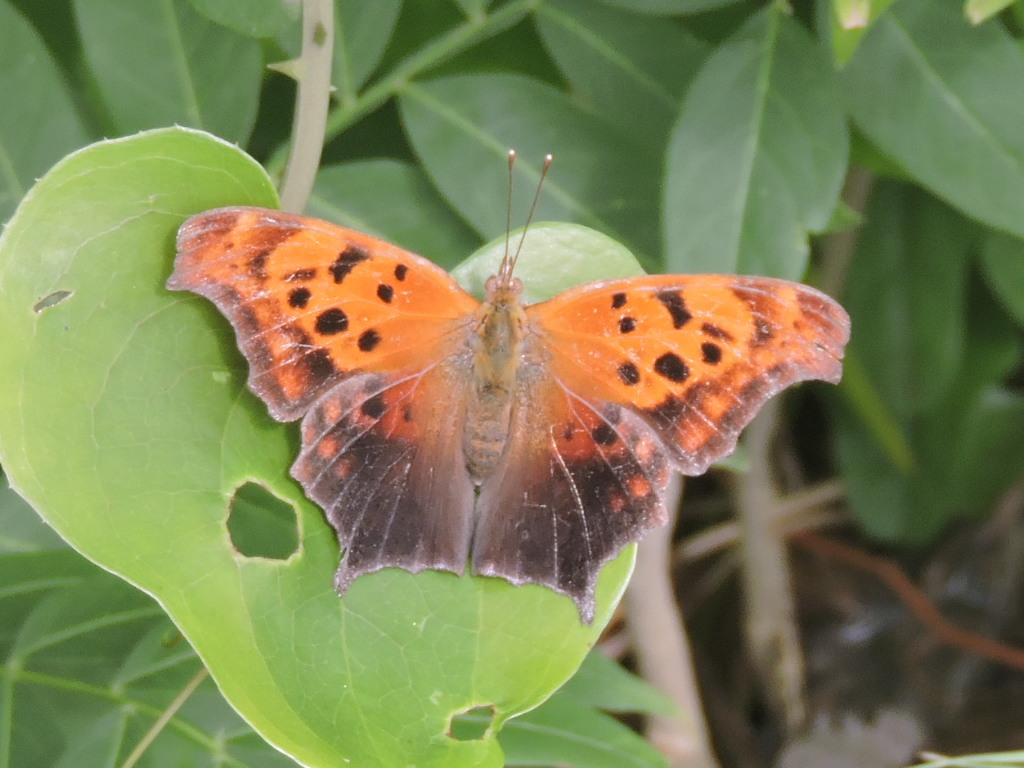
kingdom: Animalia
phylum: Arthropoda
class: Insecta
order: Lepidoptera
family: Nymphalidae
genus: Polygonia
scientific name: Polygonia interrogationis
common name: Question mark
